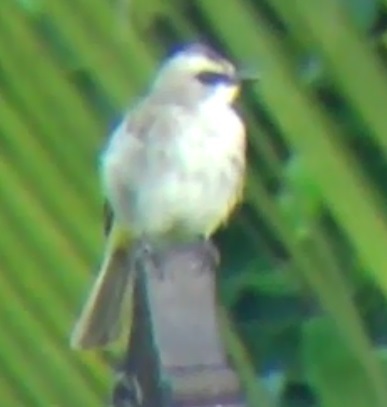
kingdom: Animalia
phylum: Chordata
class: Aves
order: Passeriformes
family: Pycnonotidae
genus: Pycnonotus
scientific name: Pycnonotus goiavier
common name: Yellow-vented bulbul
